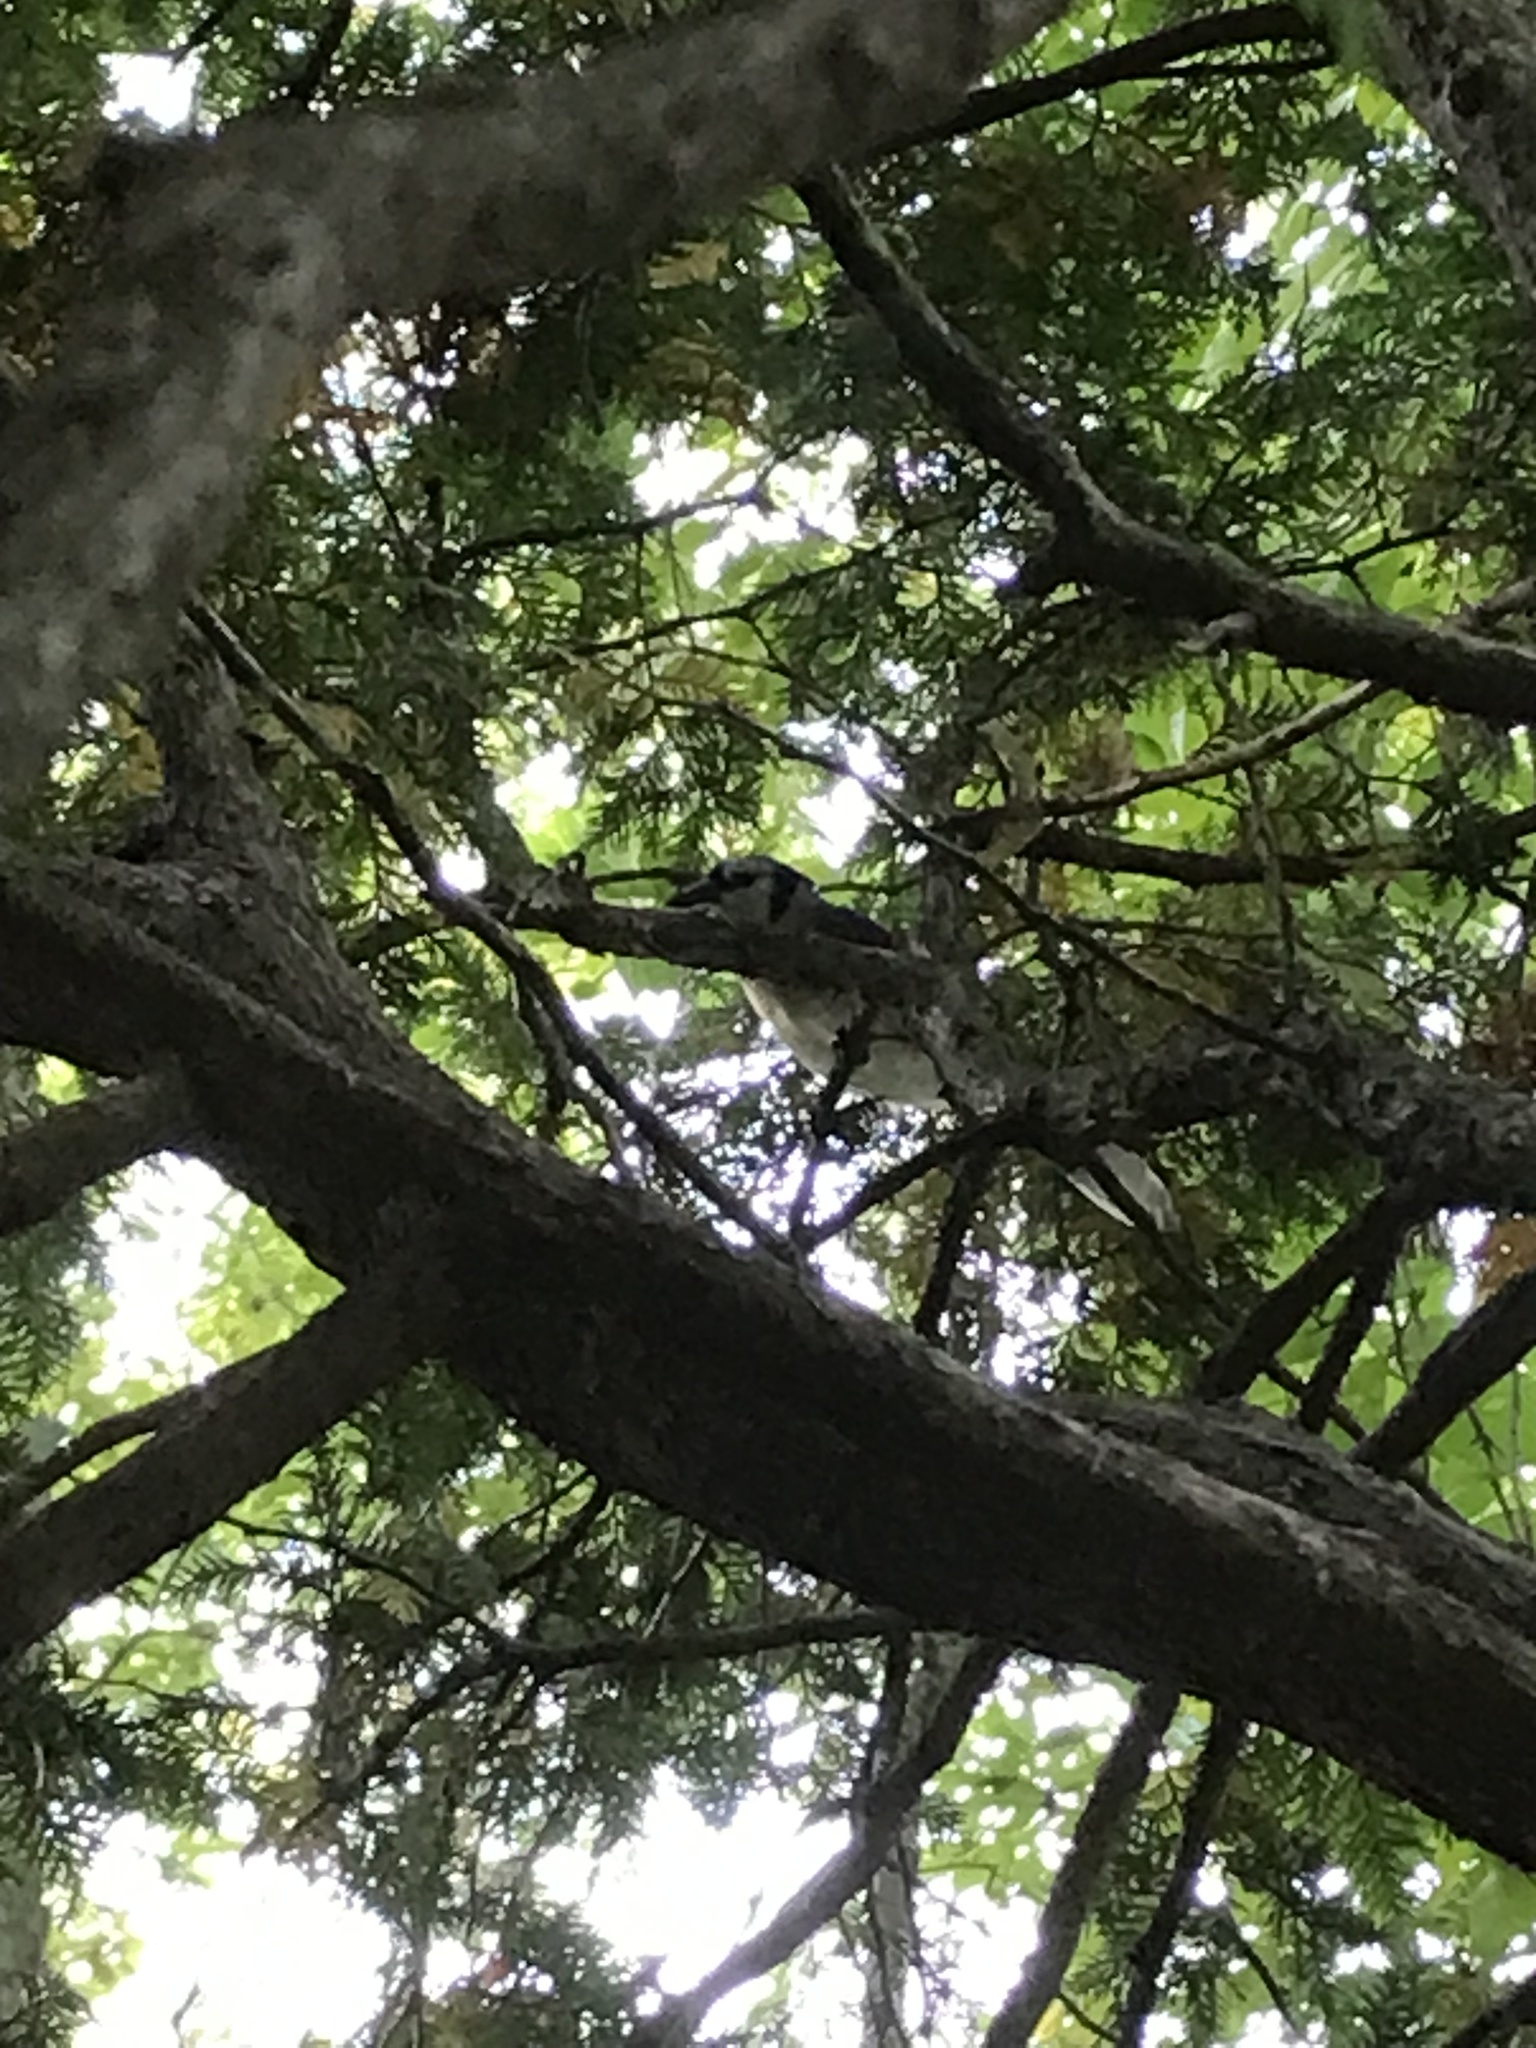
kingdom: Animalia
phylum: Chordata
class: Aves
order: Passeriformes
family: Corvidae
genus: Cyanocitta
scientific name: Cyanocitta cristata
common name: Blue jay
